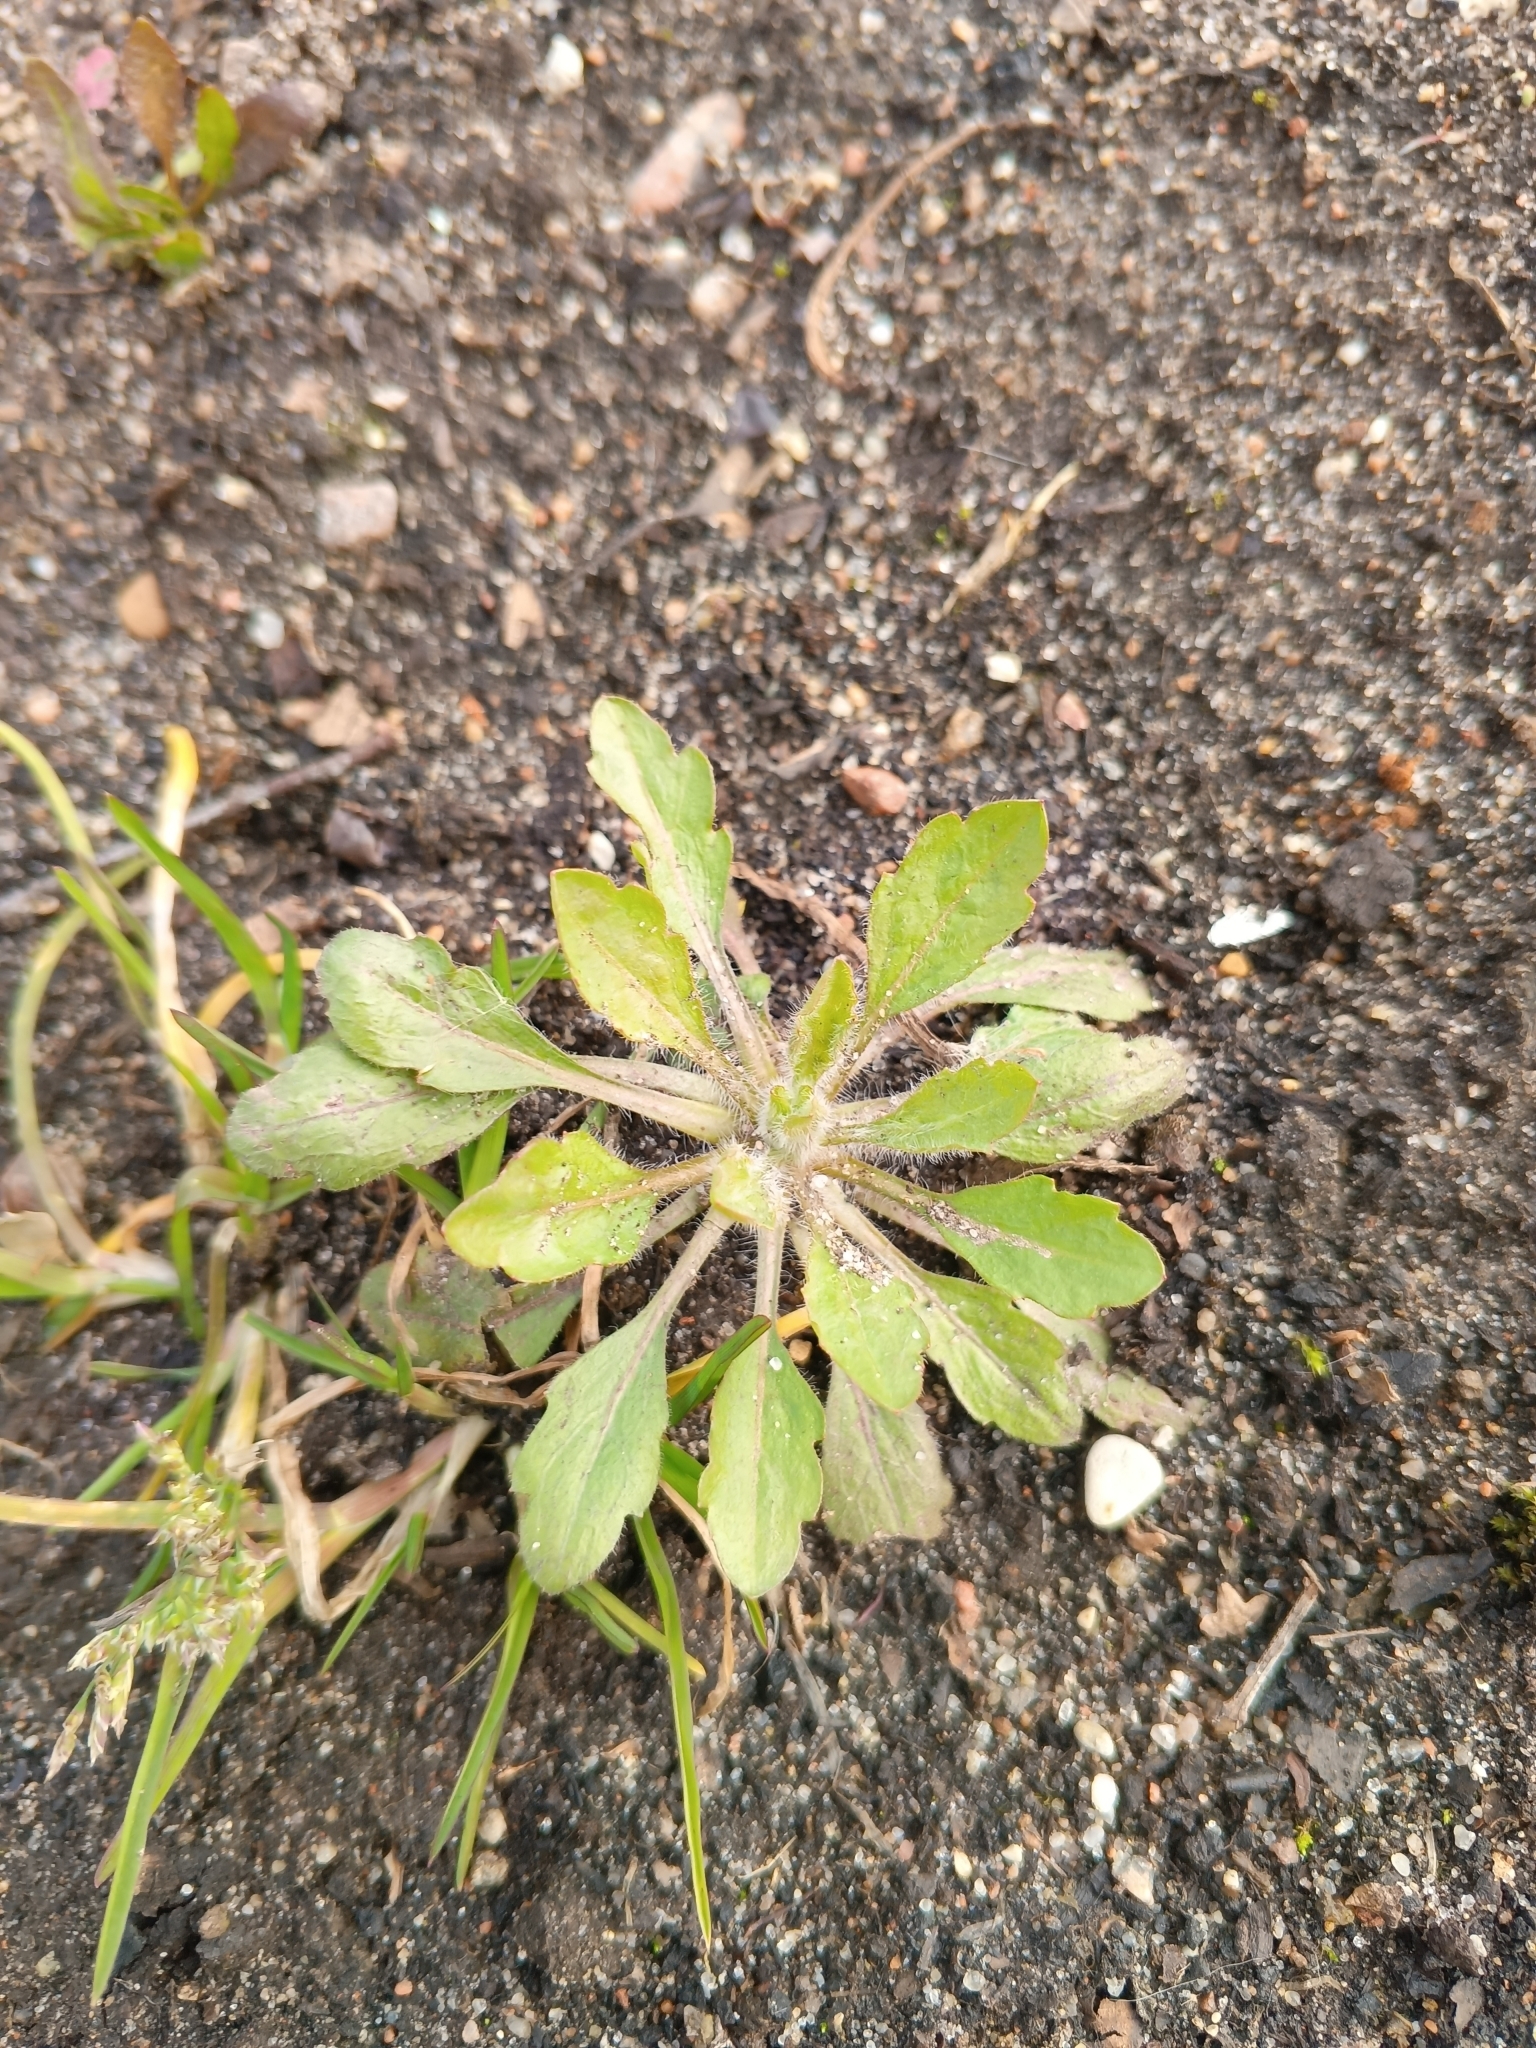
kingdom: Plantae
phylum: Tracheophyta
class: Magnoliopsida
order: Asterales
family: Asteraceae
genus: Erigeron
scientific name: Erigeron canadensis
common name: Canadian fleabane
